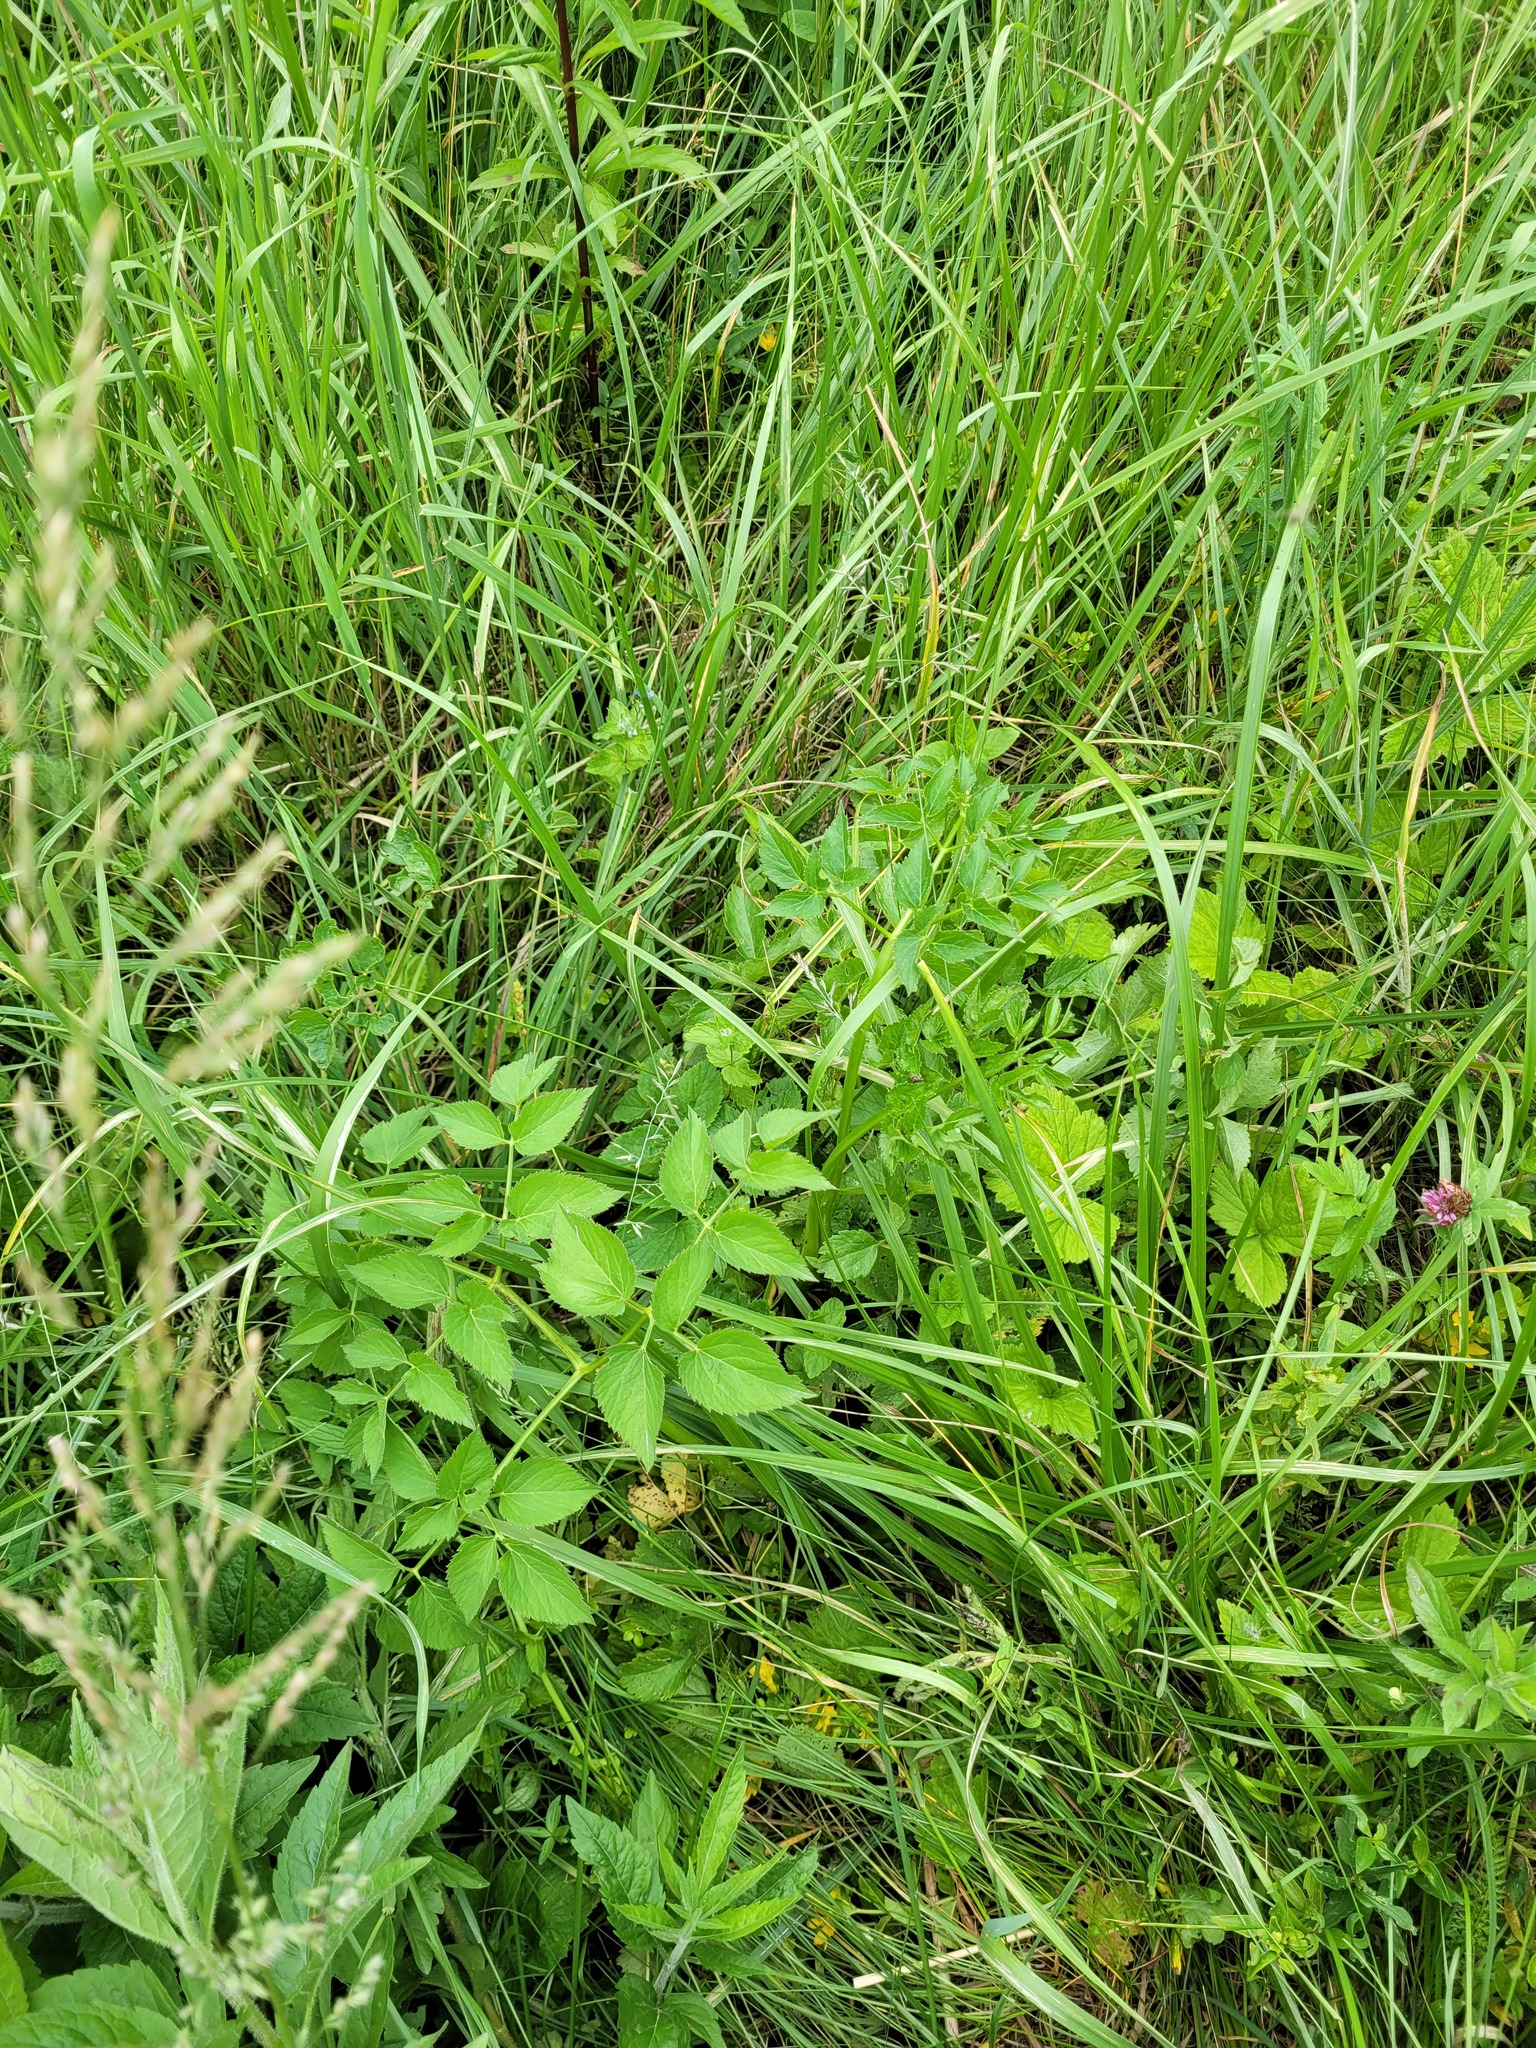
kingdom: Plantae
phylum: Tracheophyta
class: Magnoliopsida
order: Apiales
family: Apiaceae
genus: Ostericum
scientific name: Ostericum palustre
